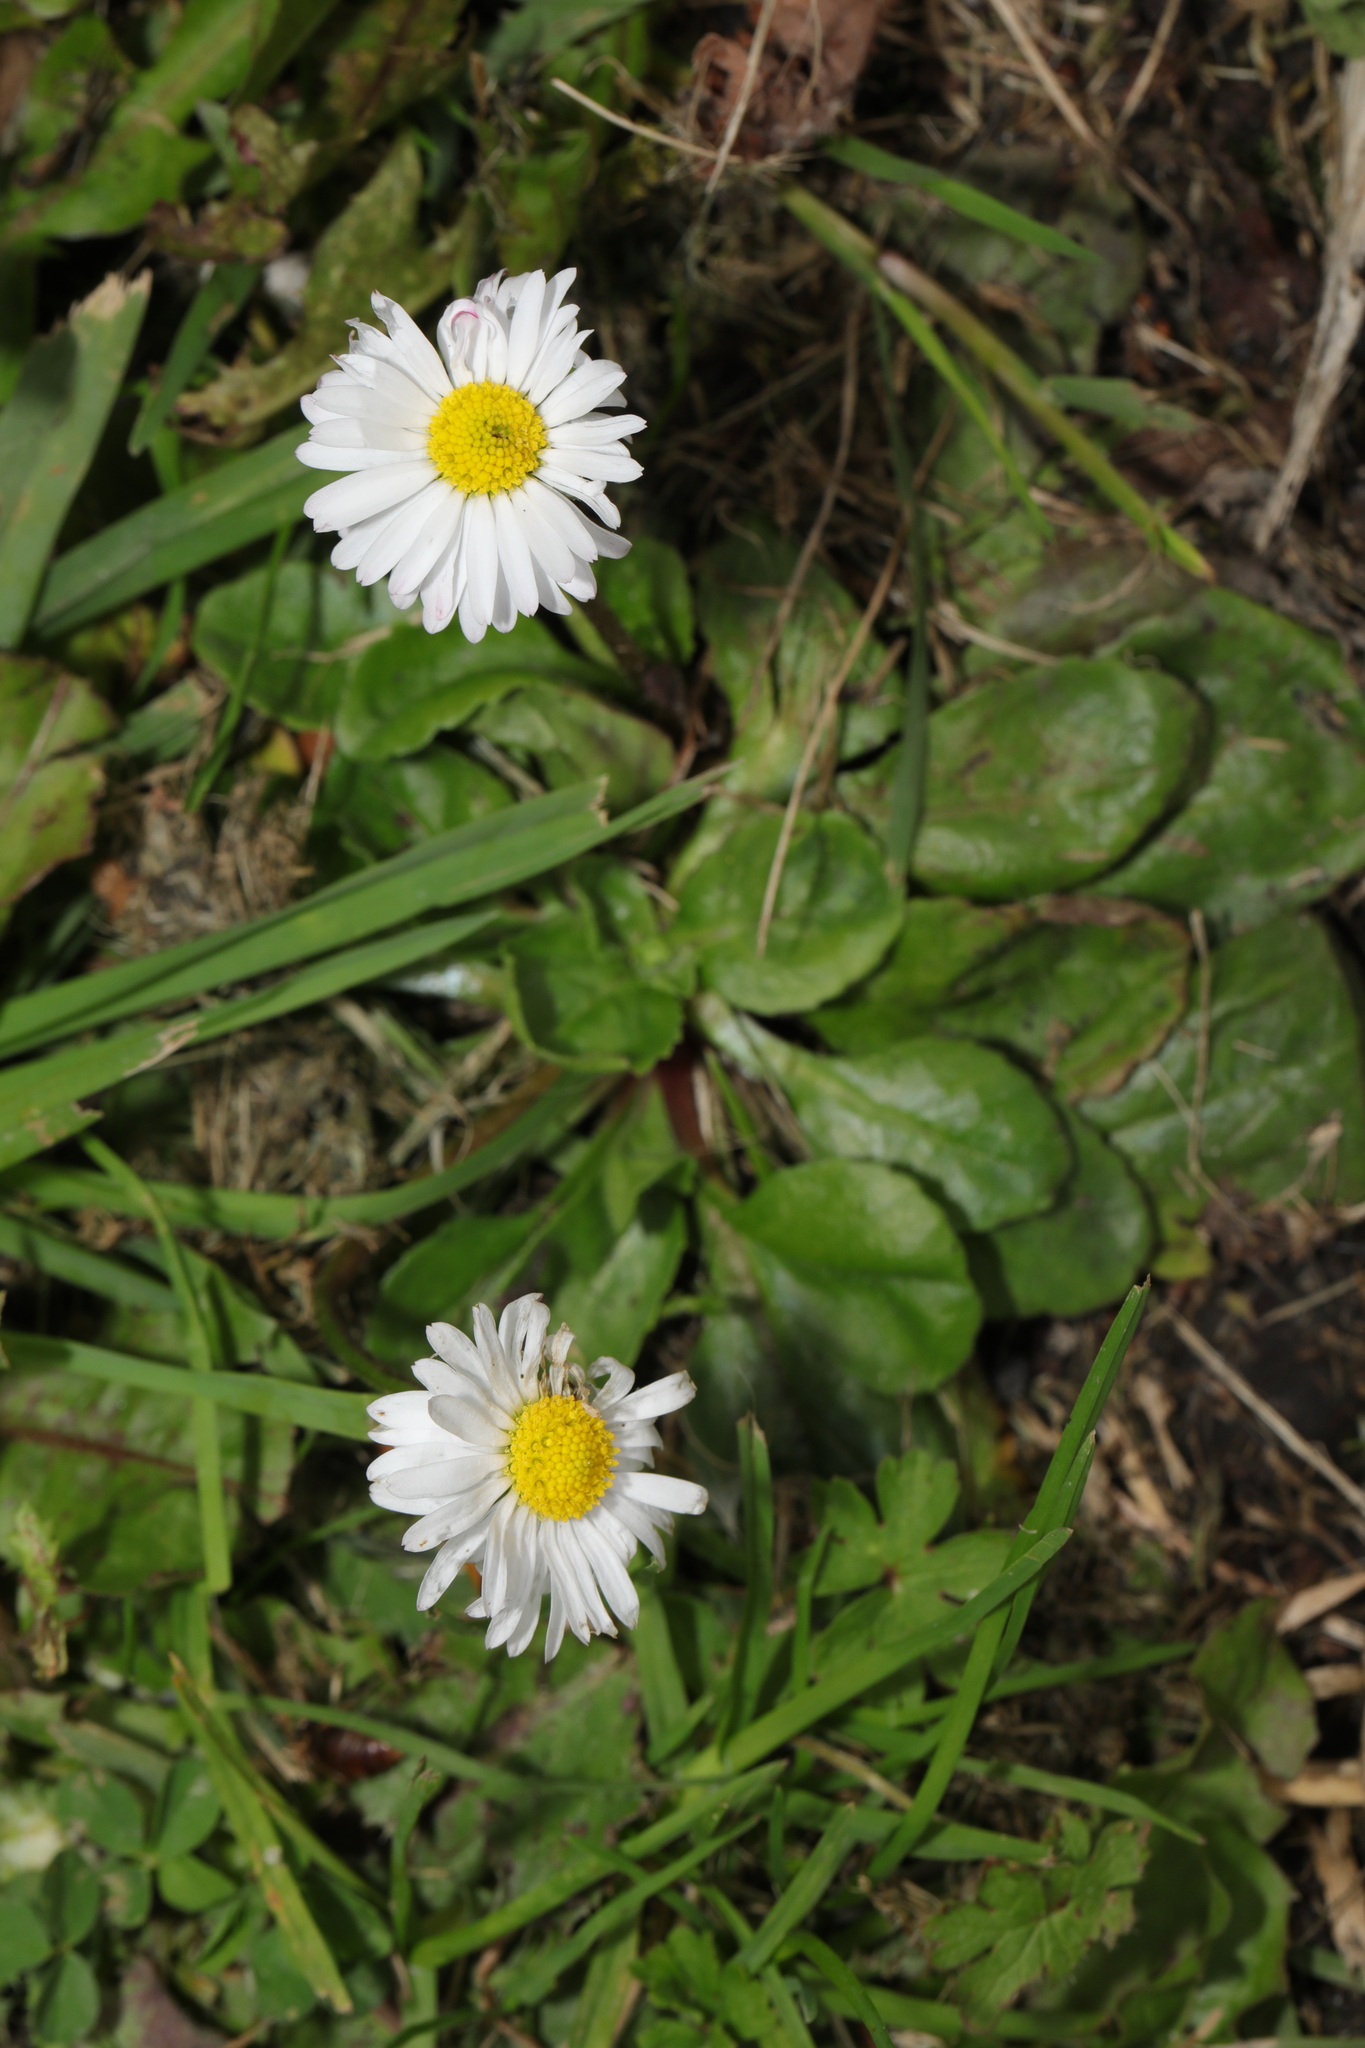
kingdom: Plantae
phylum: Tracheophyta
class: Magnoliopsida
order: Asterales
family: Asteraceae
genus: Bellis
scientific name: Bellis perennis
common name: Lawndaisy
